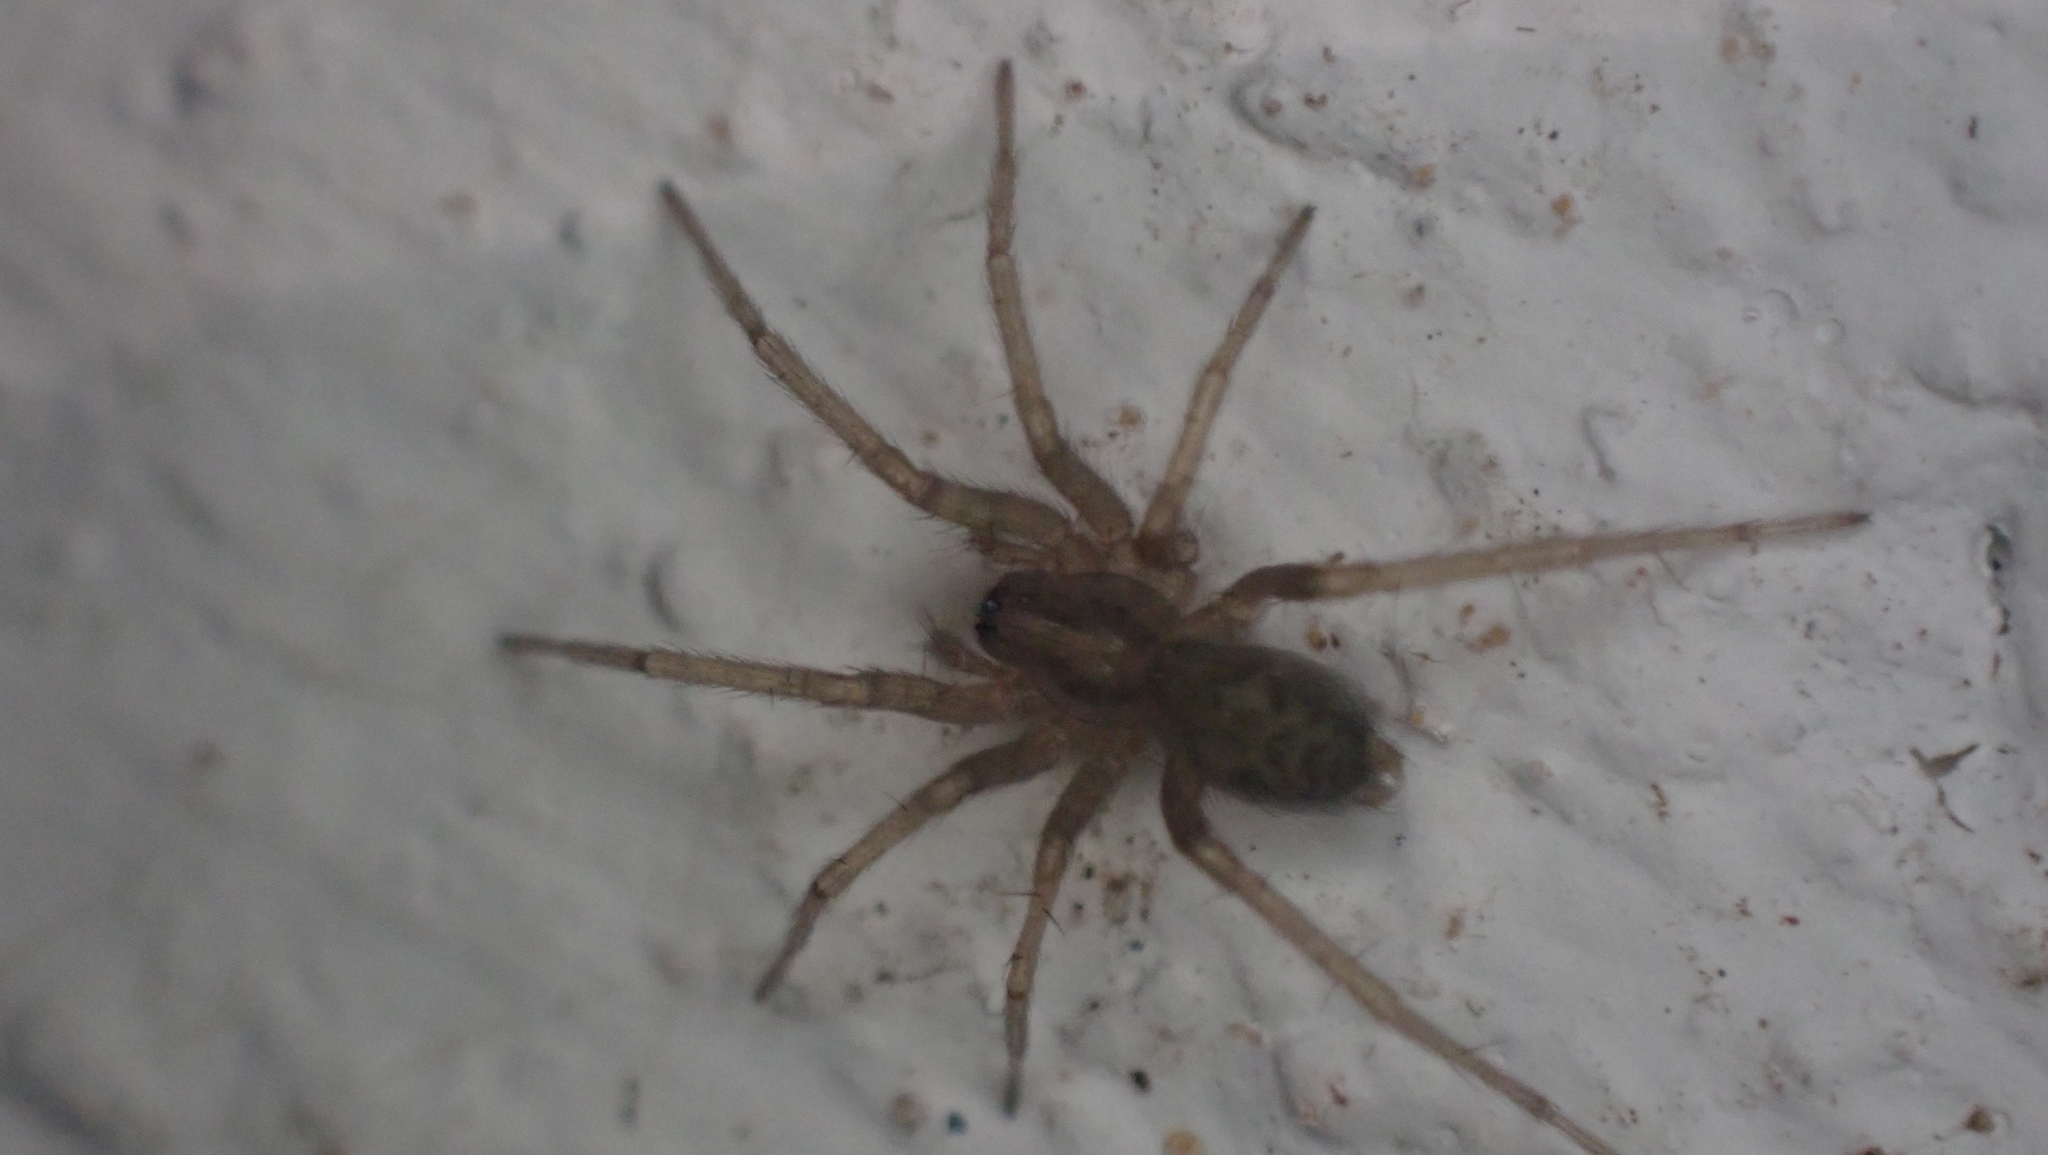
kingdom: Animalia
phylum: Arthropoda
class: Arachnida
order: Araneae
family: Agelenidae
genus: Tegenaria
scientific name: Tegenaria domestica
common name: Barn funnel weaver
